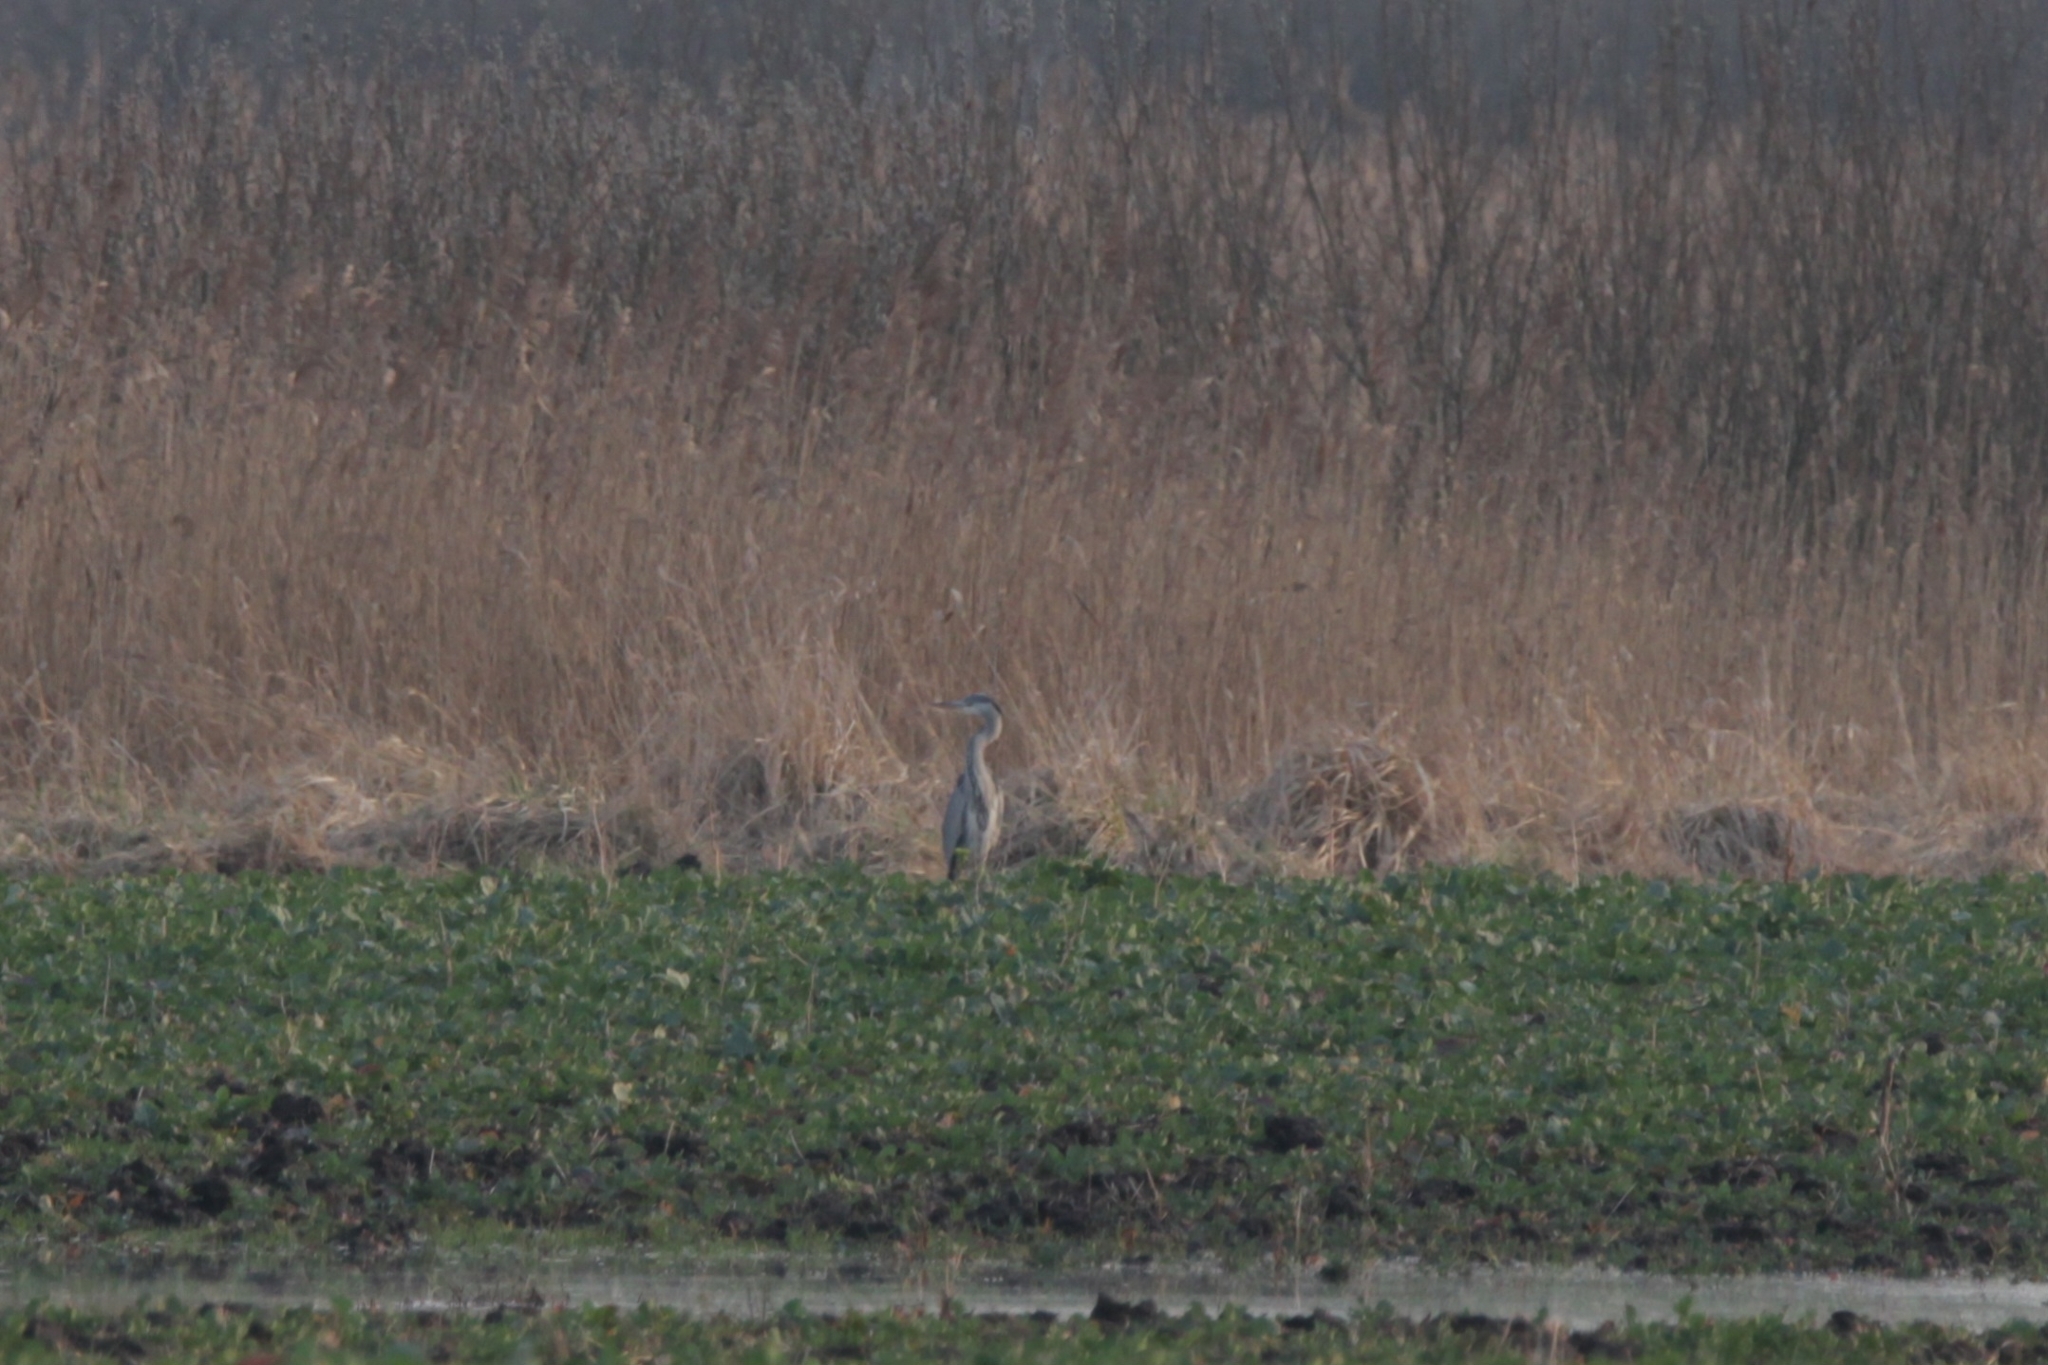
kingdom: Animalia
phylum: Chordata
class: Aves
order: Pelecaniformes
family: Ardeidae
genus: Ardea
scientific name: Ardea cinerea
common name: Grey heron
